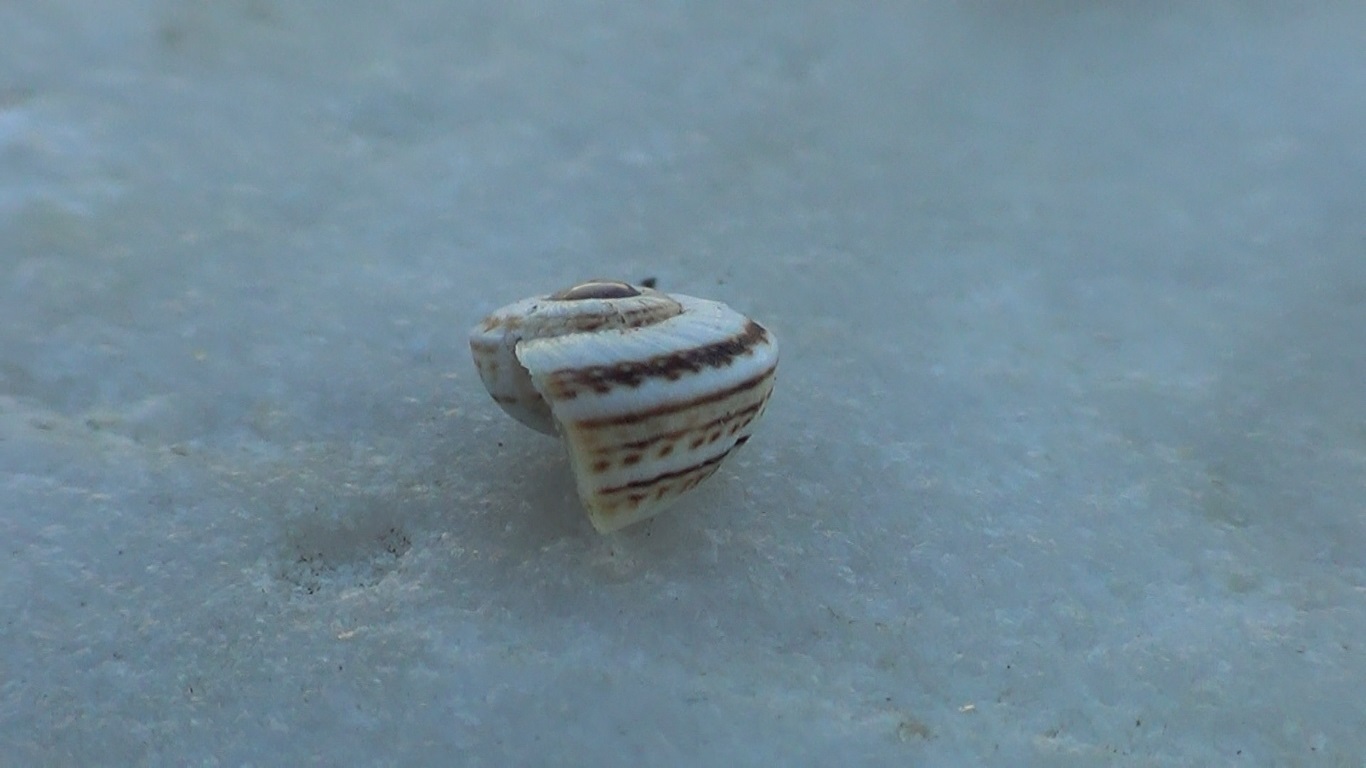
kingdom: Animalia
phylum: Mollusca
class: Gastropoda
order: Stylommatophora
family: Helicidae
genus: Theba
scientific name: Theba pisana
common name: White snail
